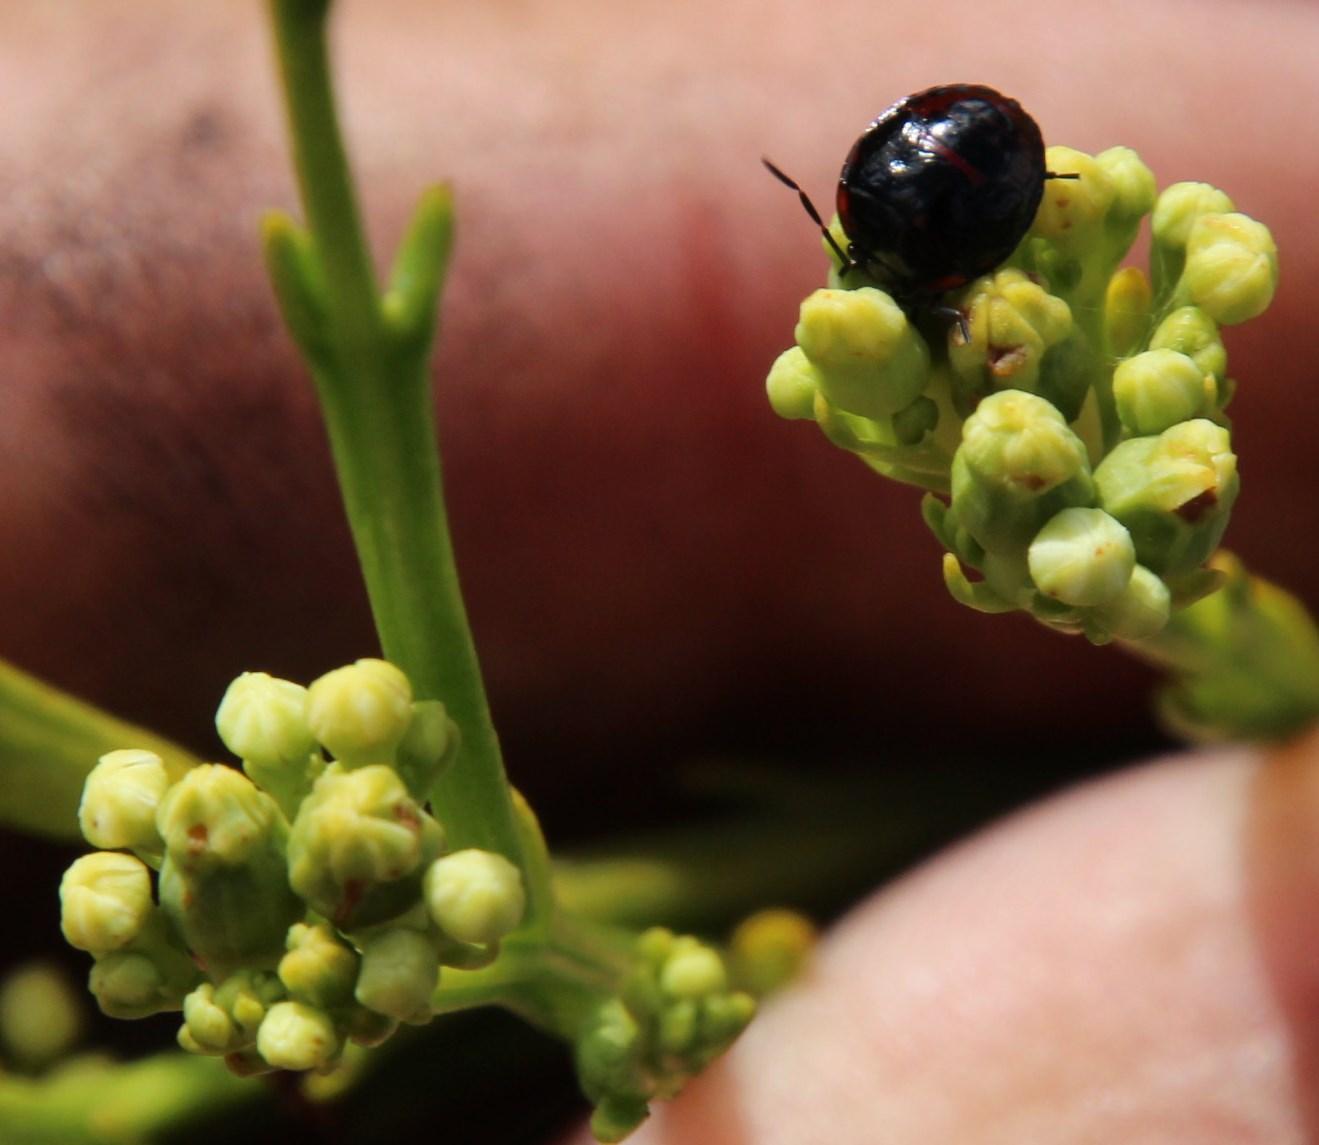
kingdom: Plantae
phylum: Tracheophyta
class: Magnoliopsida
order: Santalales
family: Thesiaceae
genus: Thesium
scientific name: Thesium strictum
